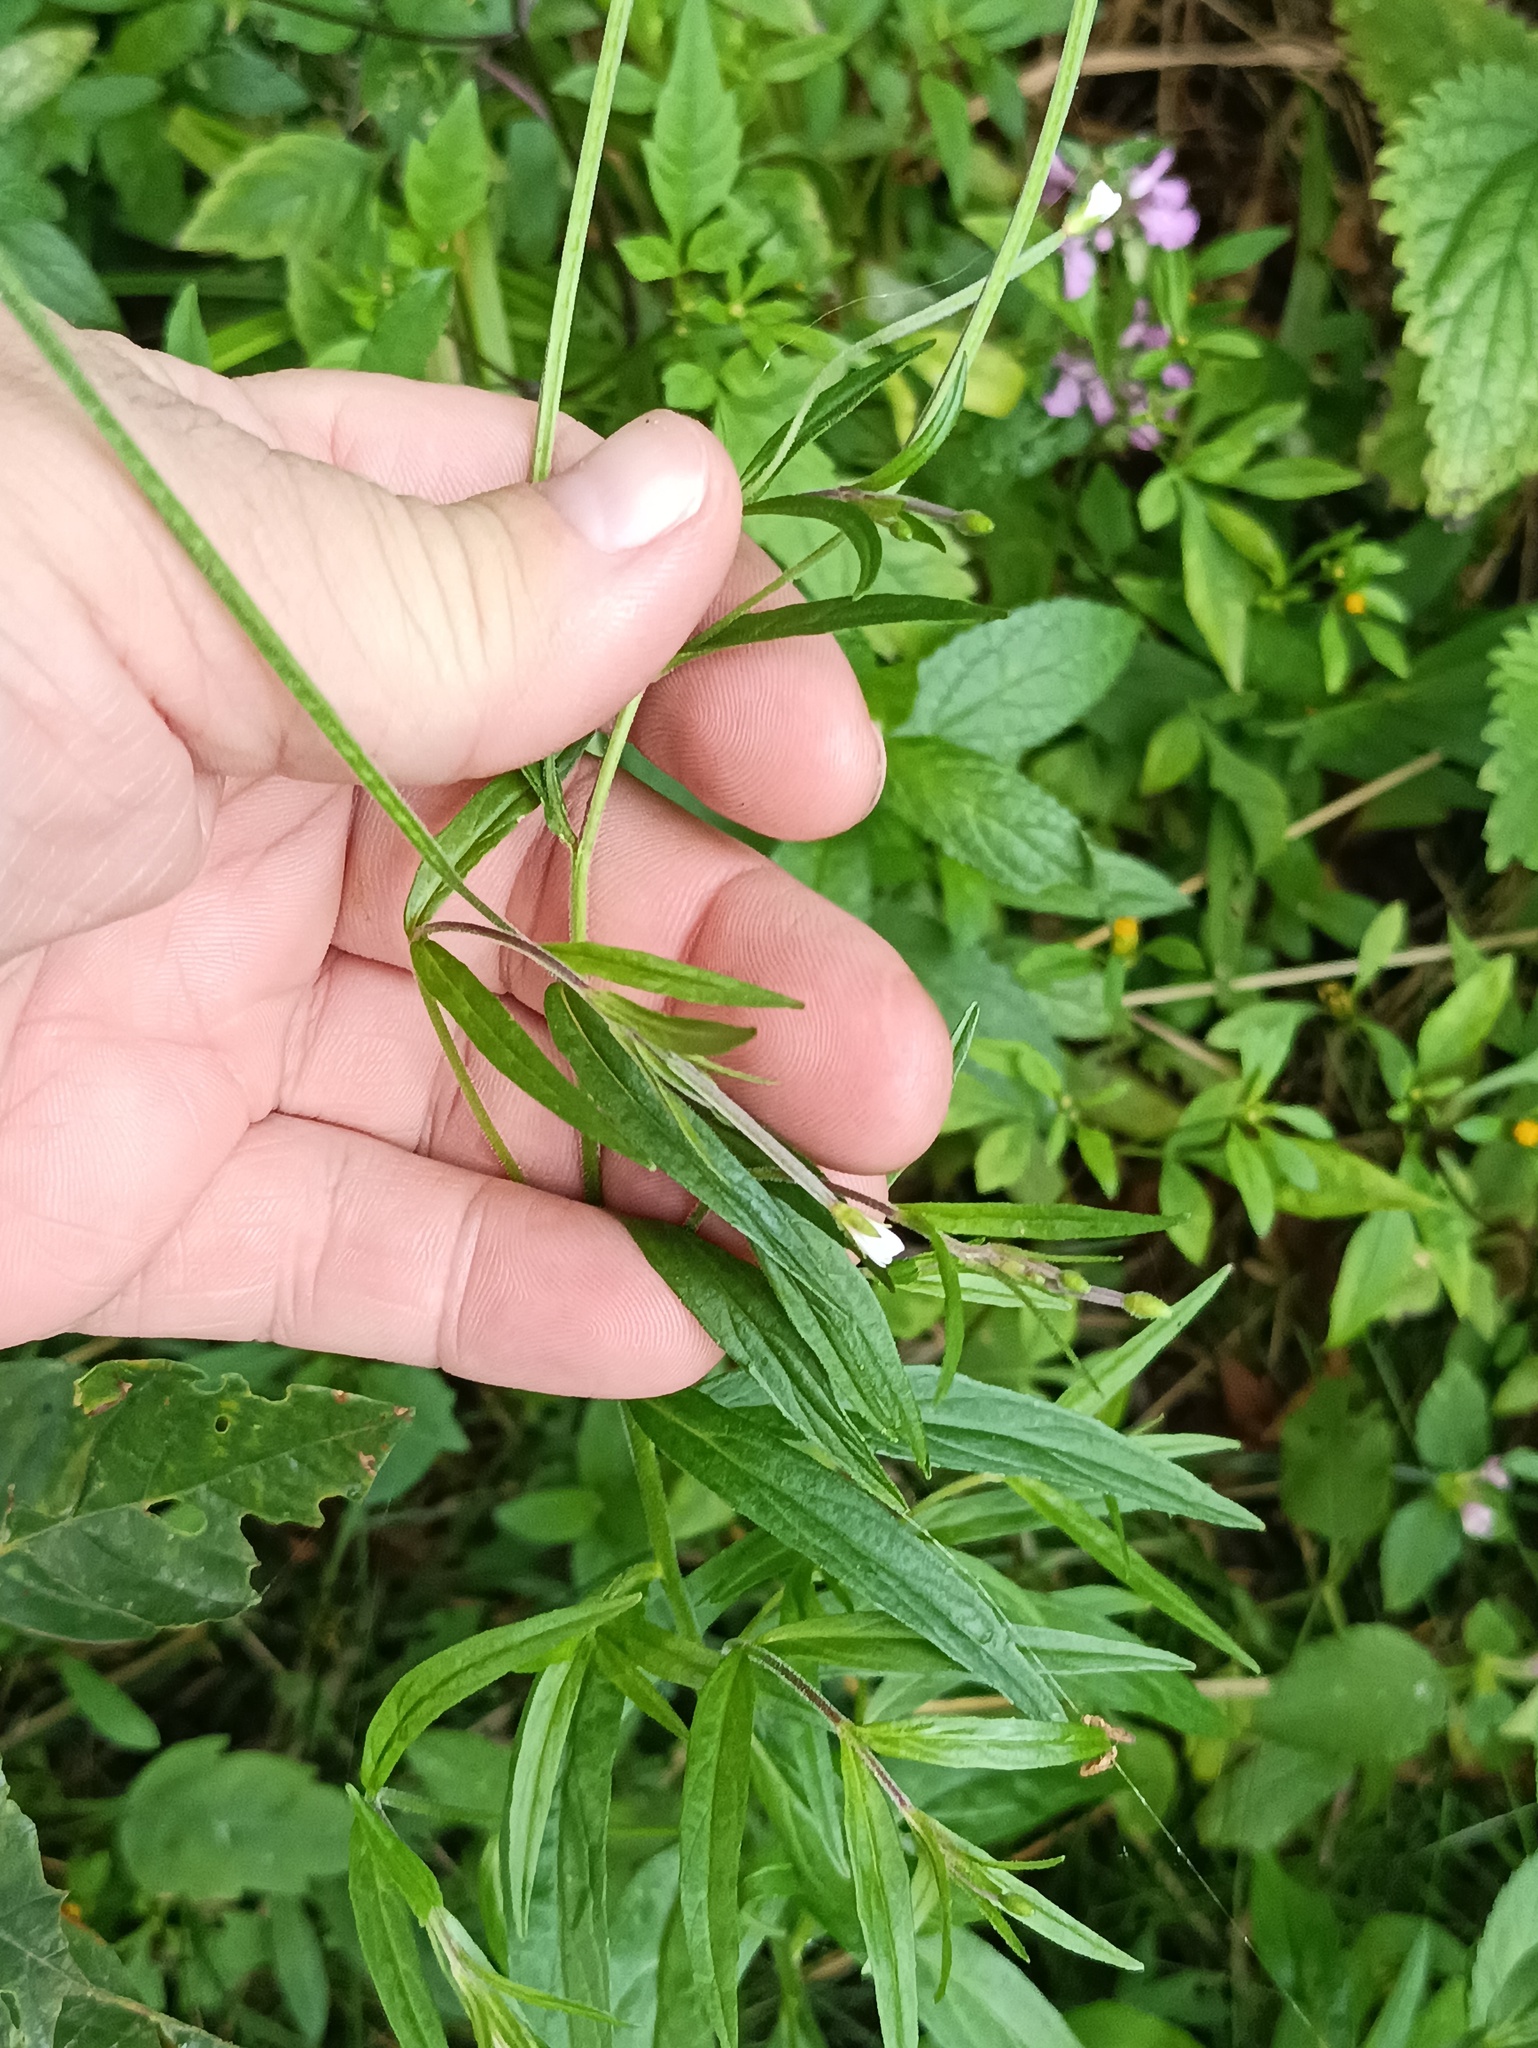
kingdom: Plantae
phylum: Tracheophyta
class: Magnoliopsida
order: Myrtales
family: Onagraceae
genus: Epilobium
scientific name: Epilobium palustre
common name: Marsh willowherb
